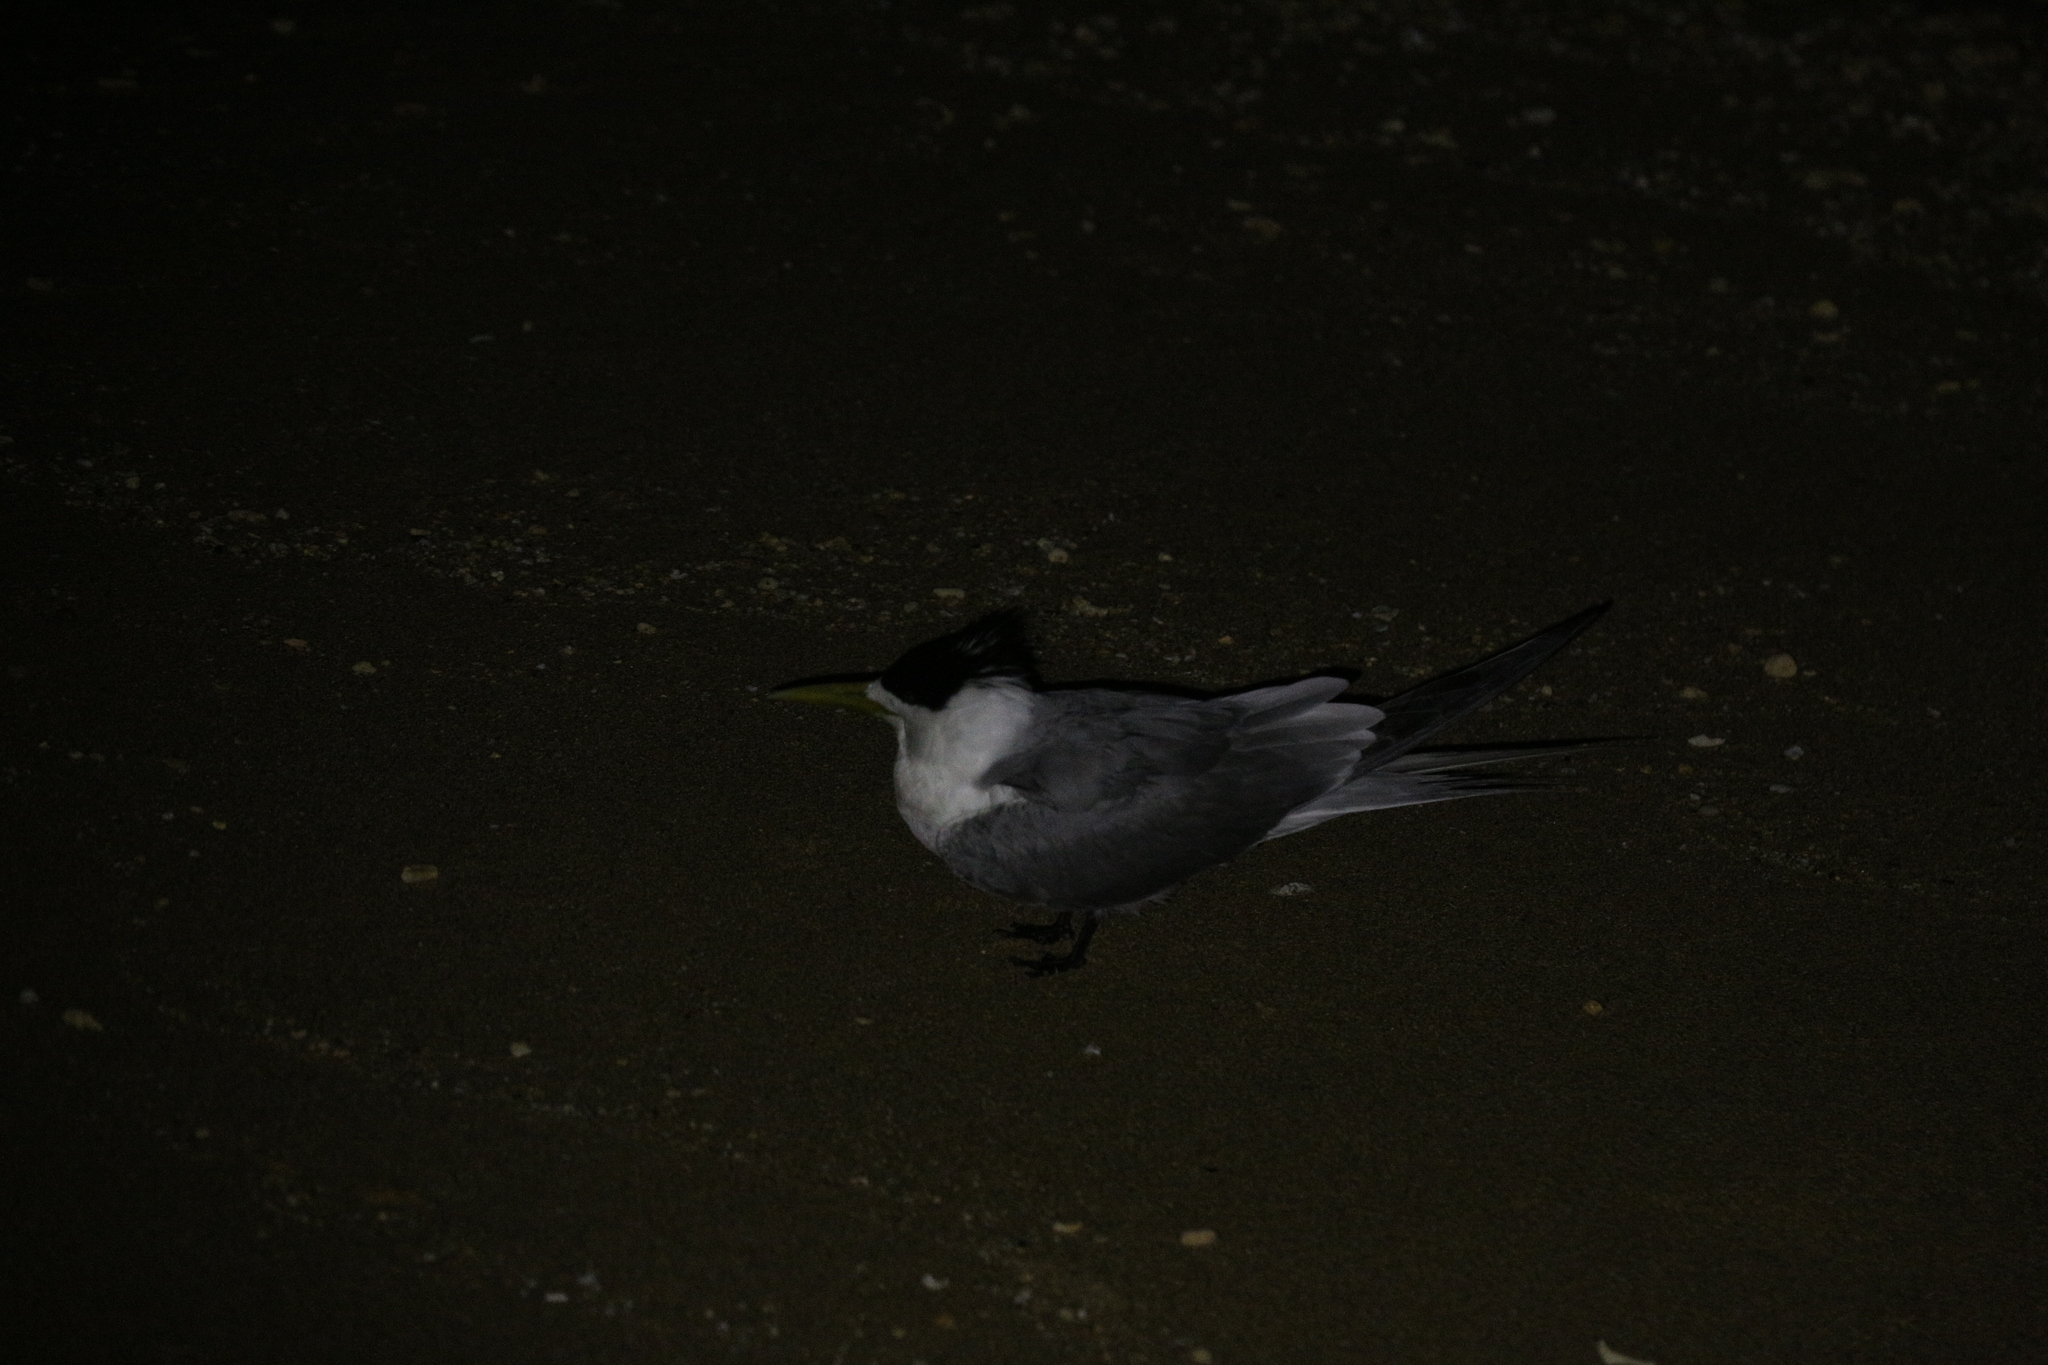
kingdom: Animalia
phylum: Chordata
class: Aves
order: Charadriiformes
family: Laridae
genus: Thalasseus
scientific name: Thalasseus bergii
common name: Greater crested tern
